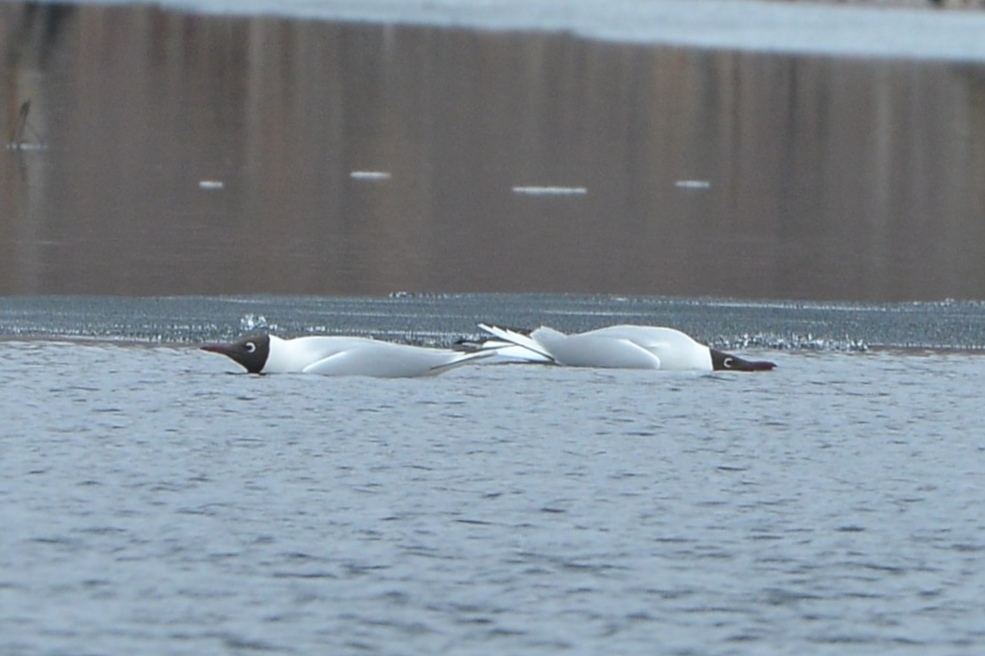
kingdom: Animalia
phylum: Chordata
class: Aves
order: Charadriiformes
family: Laridae
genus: Chroicocephalus
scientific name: Chroicocephalus ridibundus
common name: Black-headed gull
